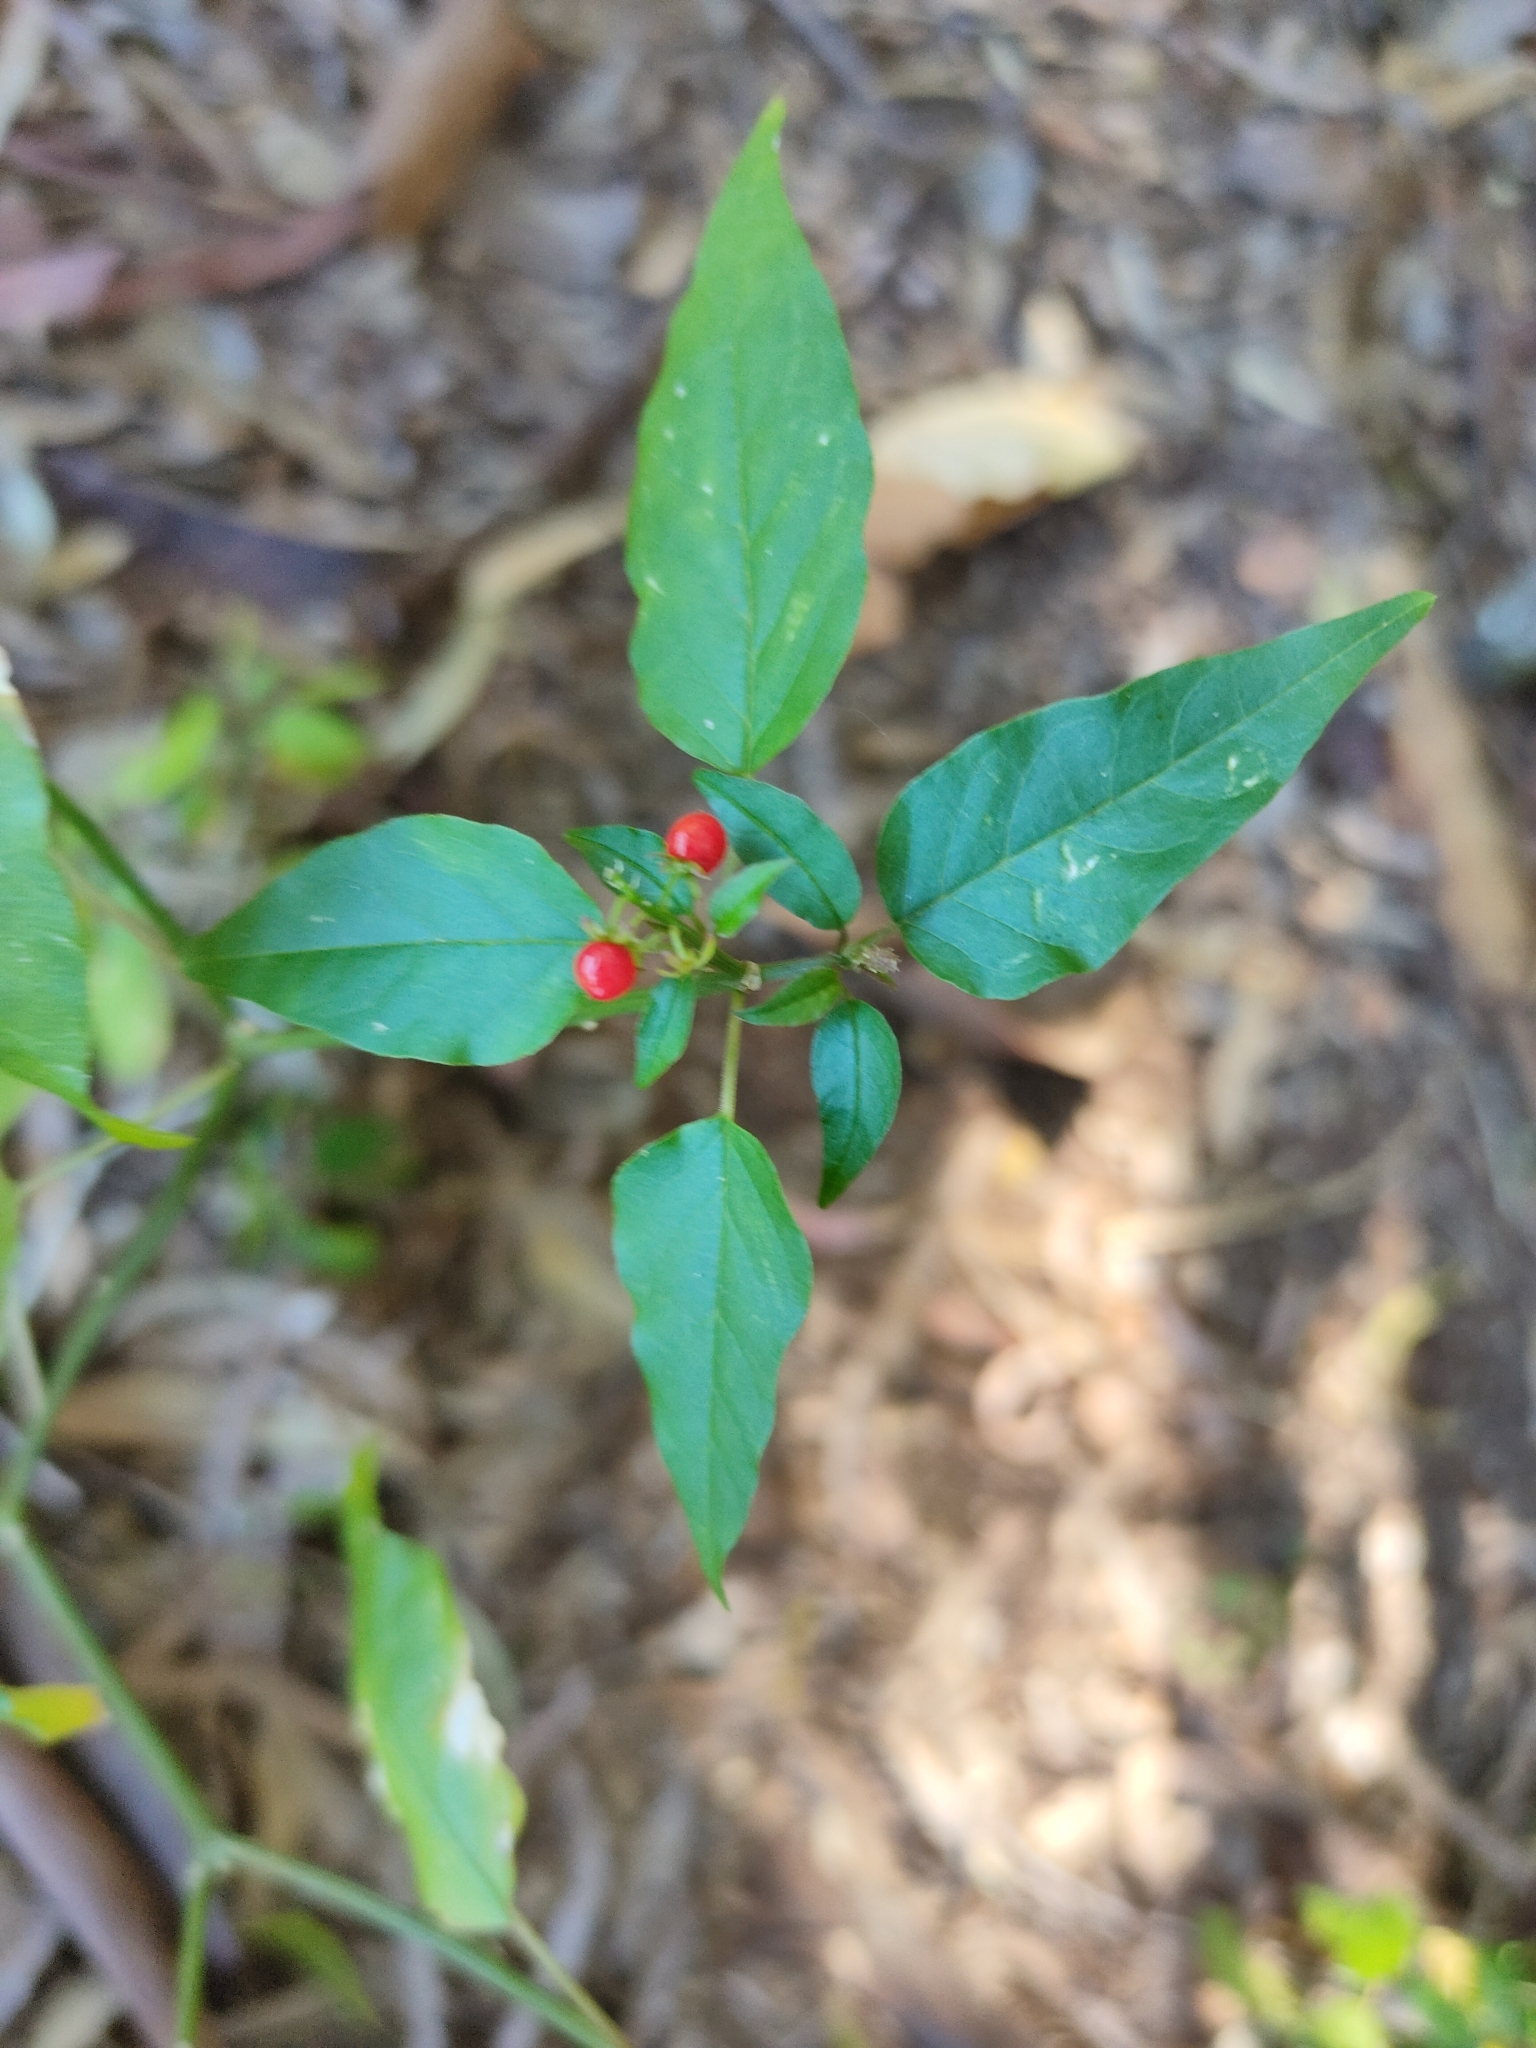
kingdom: Plantae
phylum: Tracheophyta
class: Magnoliopsida
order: Caryophyllales
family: Phytolaccaceae
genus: Rivina
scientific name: Rivina humilis
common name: Rougeplant
